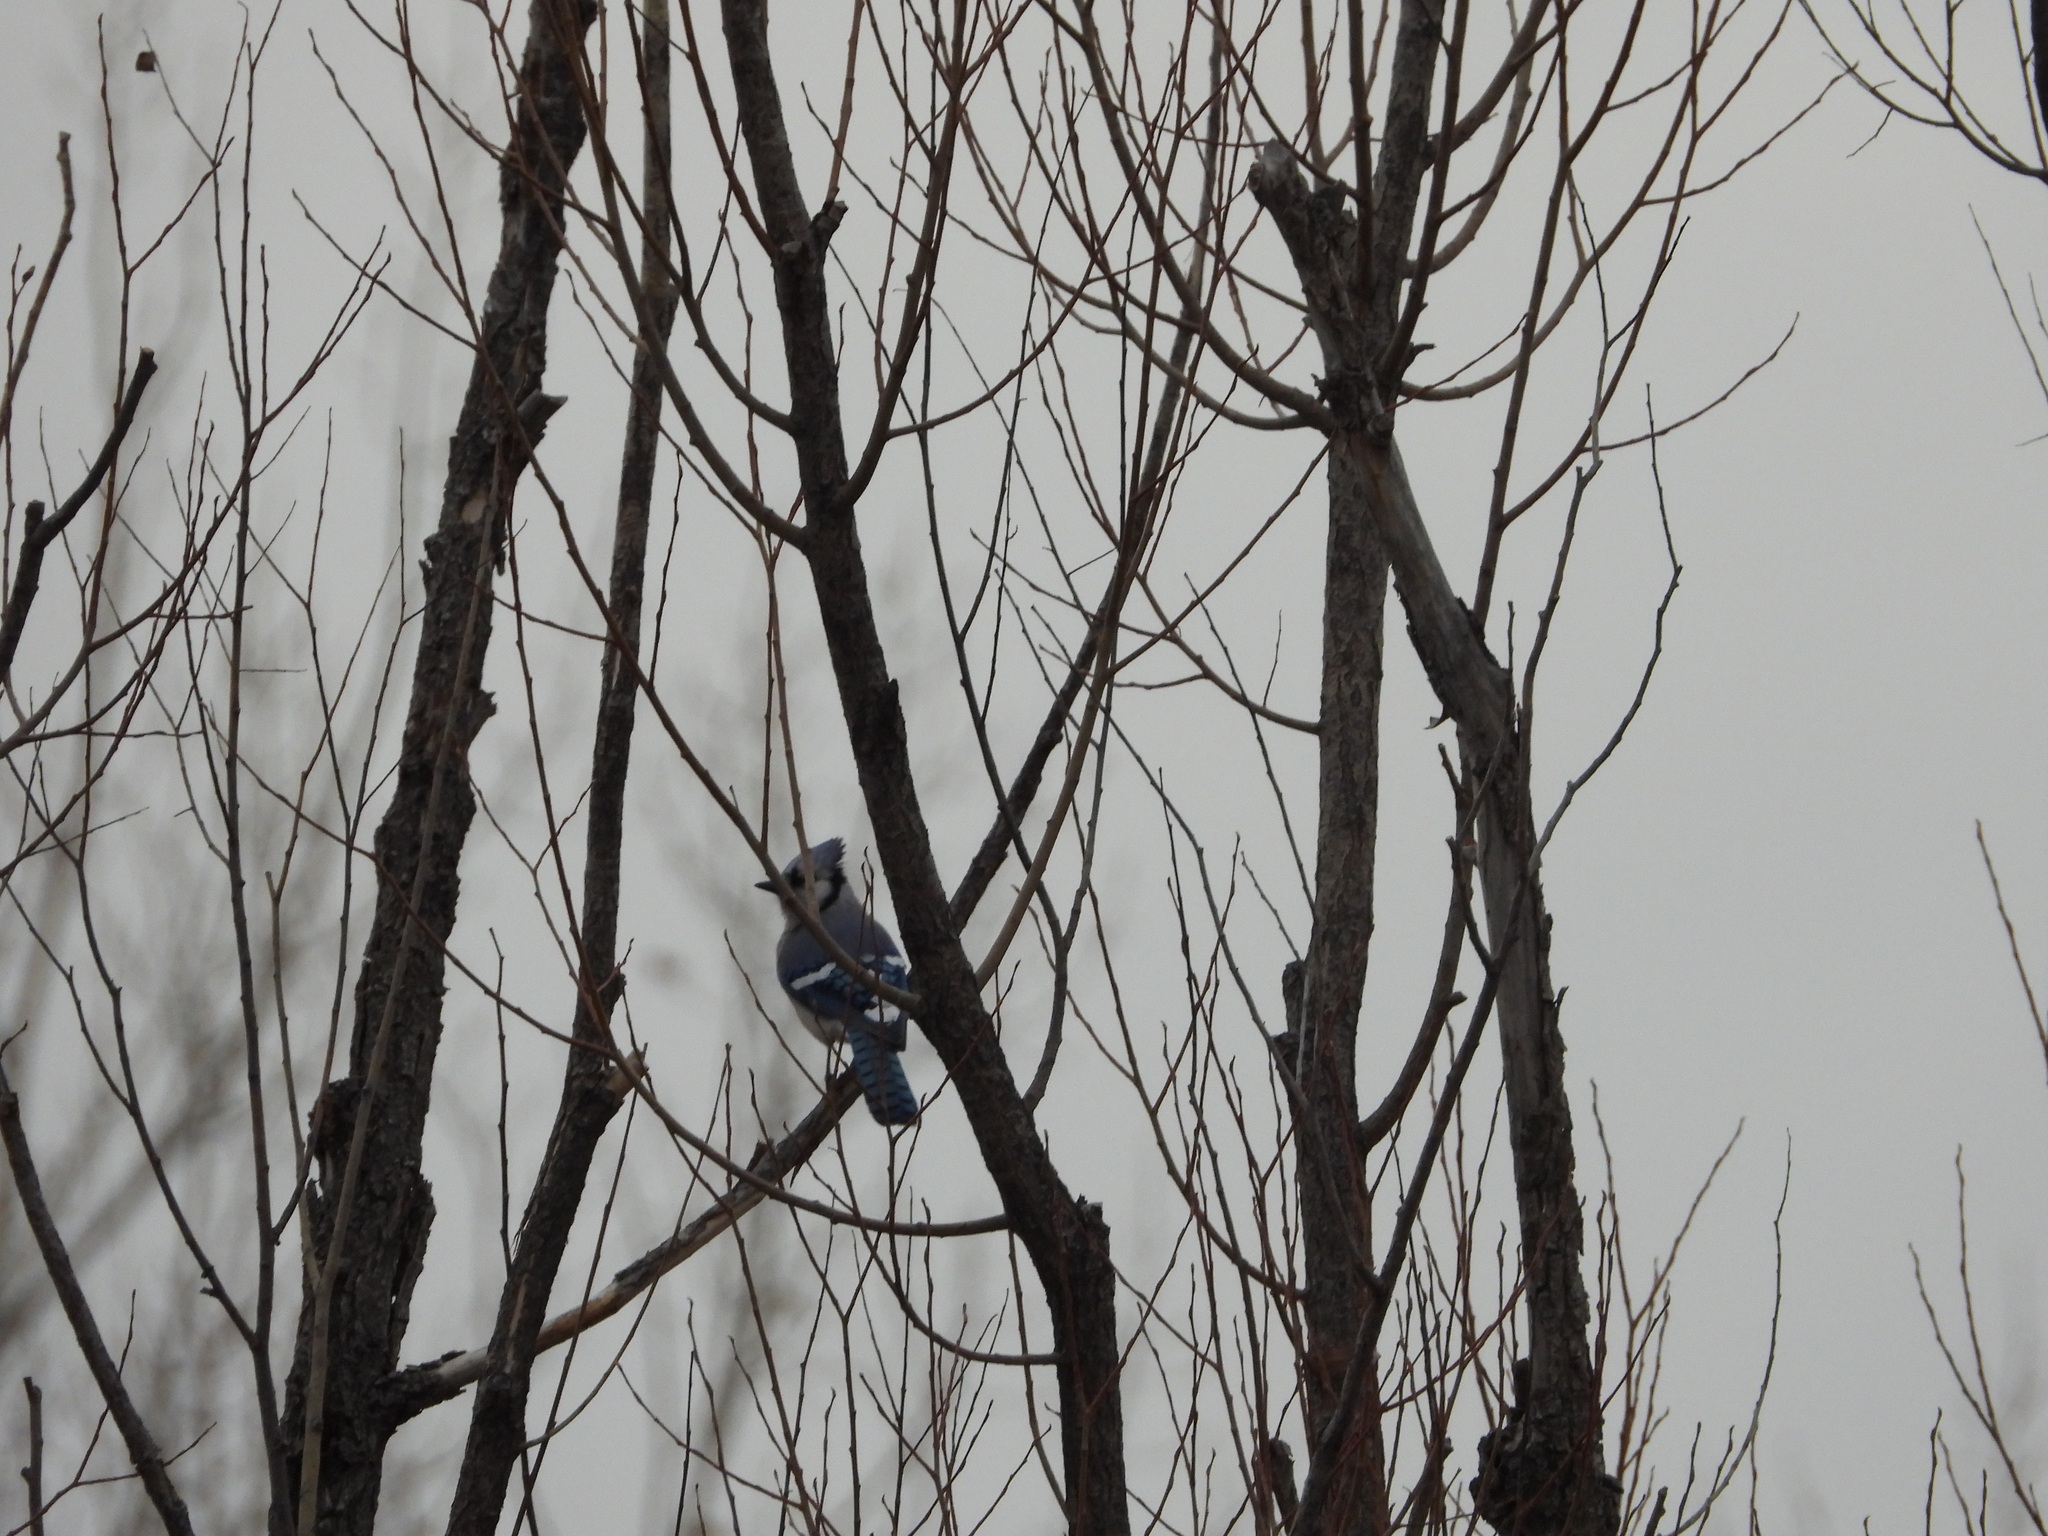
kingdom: Animalia
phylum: Chordata
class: Aves
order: Passeriformes
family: Corvidae
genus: Cyanocitta
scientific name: Cyanocitta cristata
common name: Blue jay
